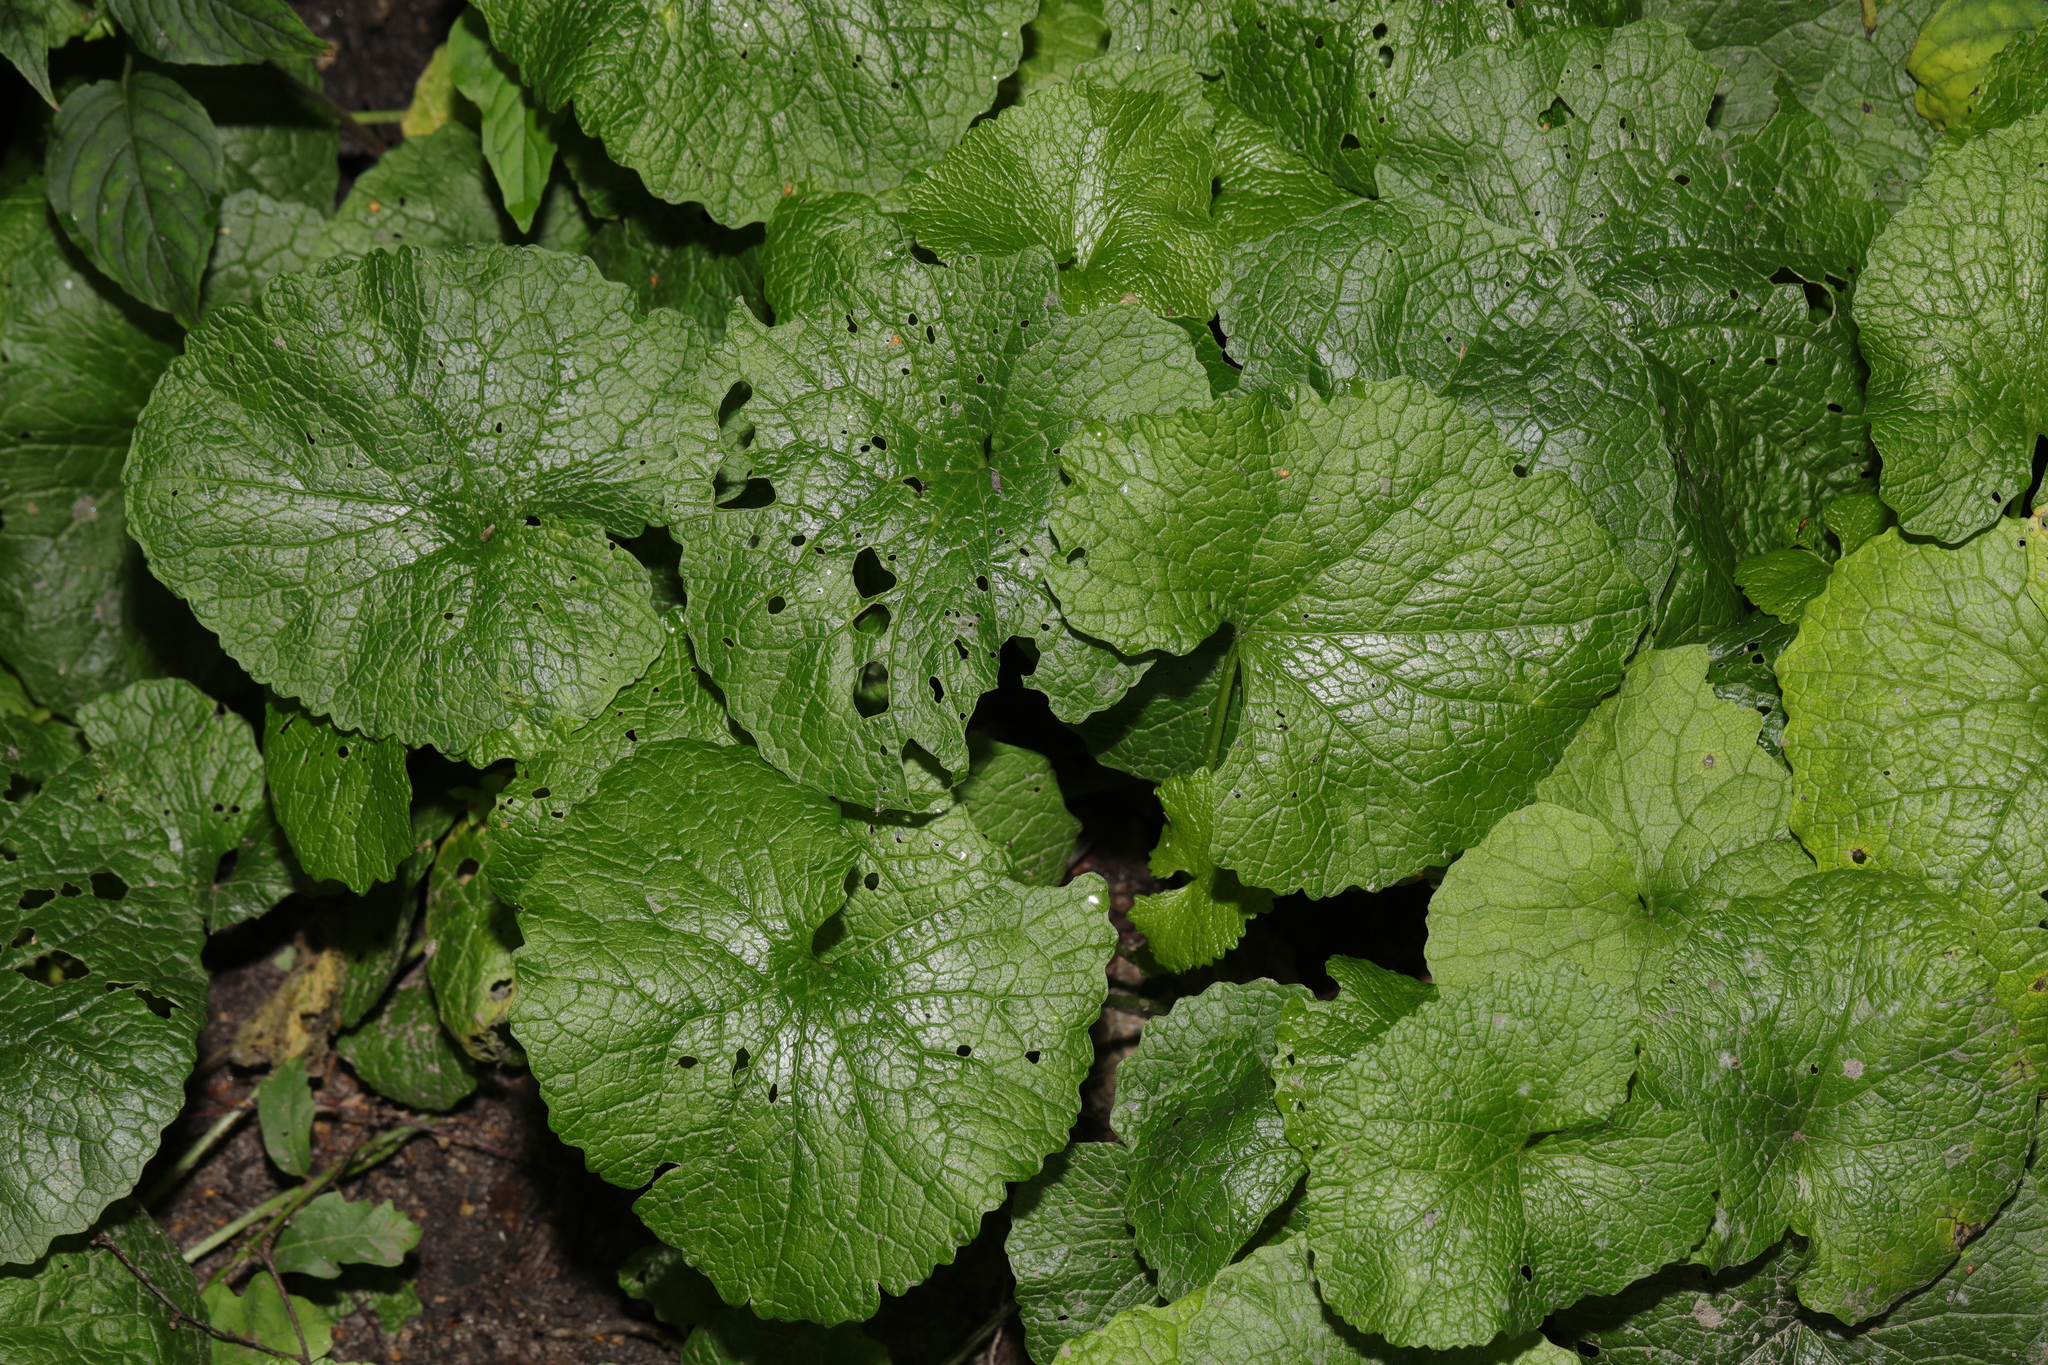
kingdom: Plantae
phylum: Tracheophyta
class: Magnoliopsida
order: Brassicales
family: Brassicaceae
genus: Alliaria
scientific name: Alliaria petiolata
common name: Garlic mustard
